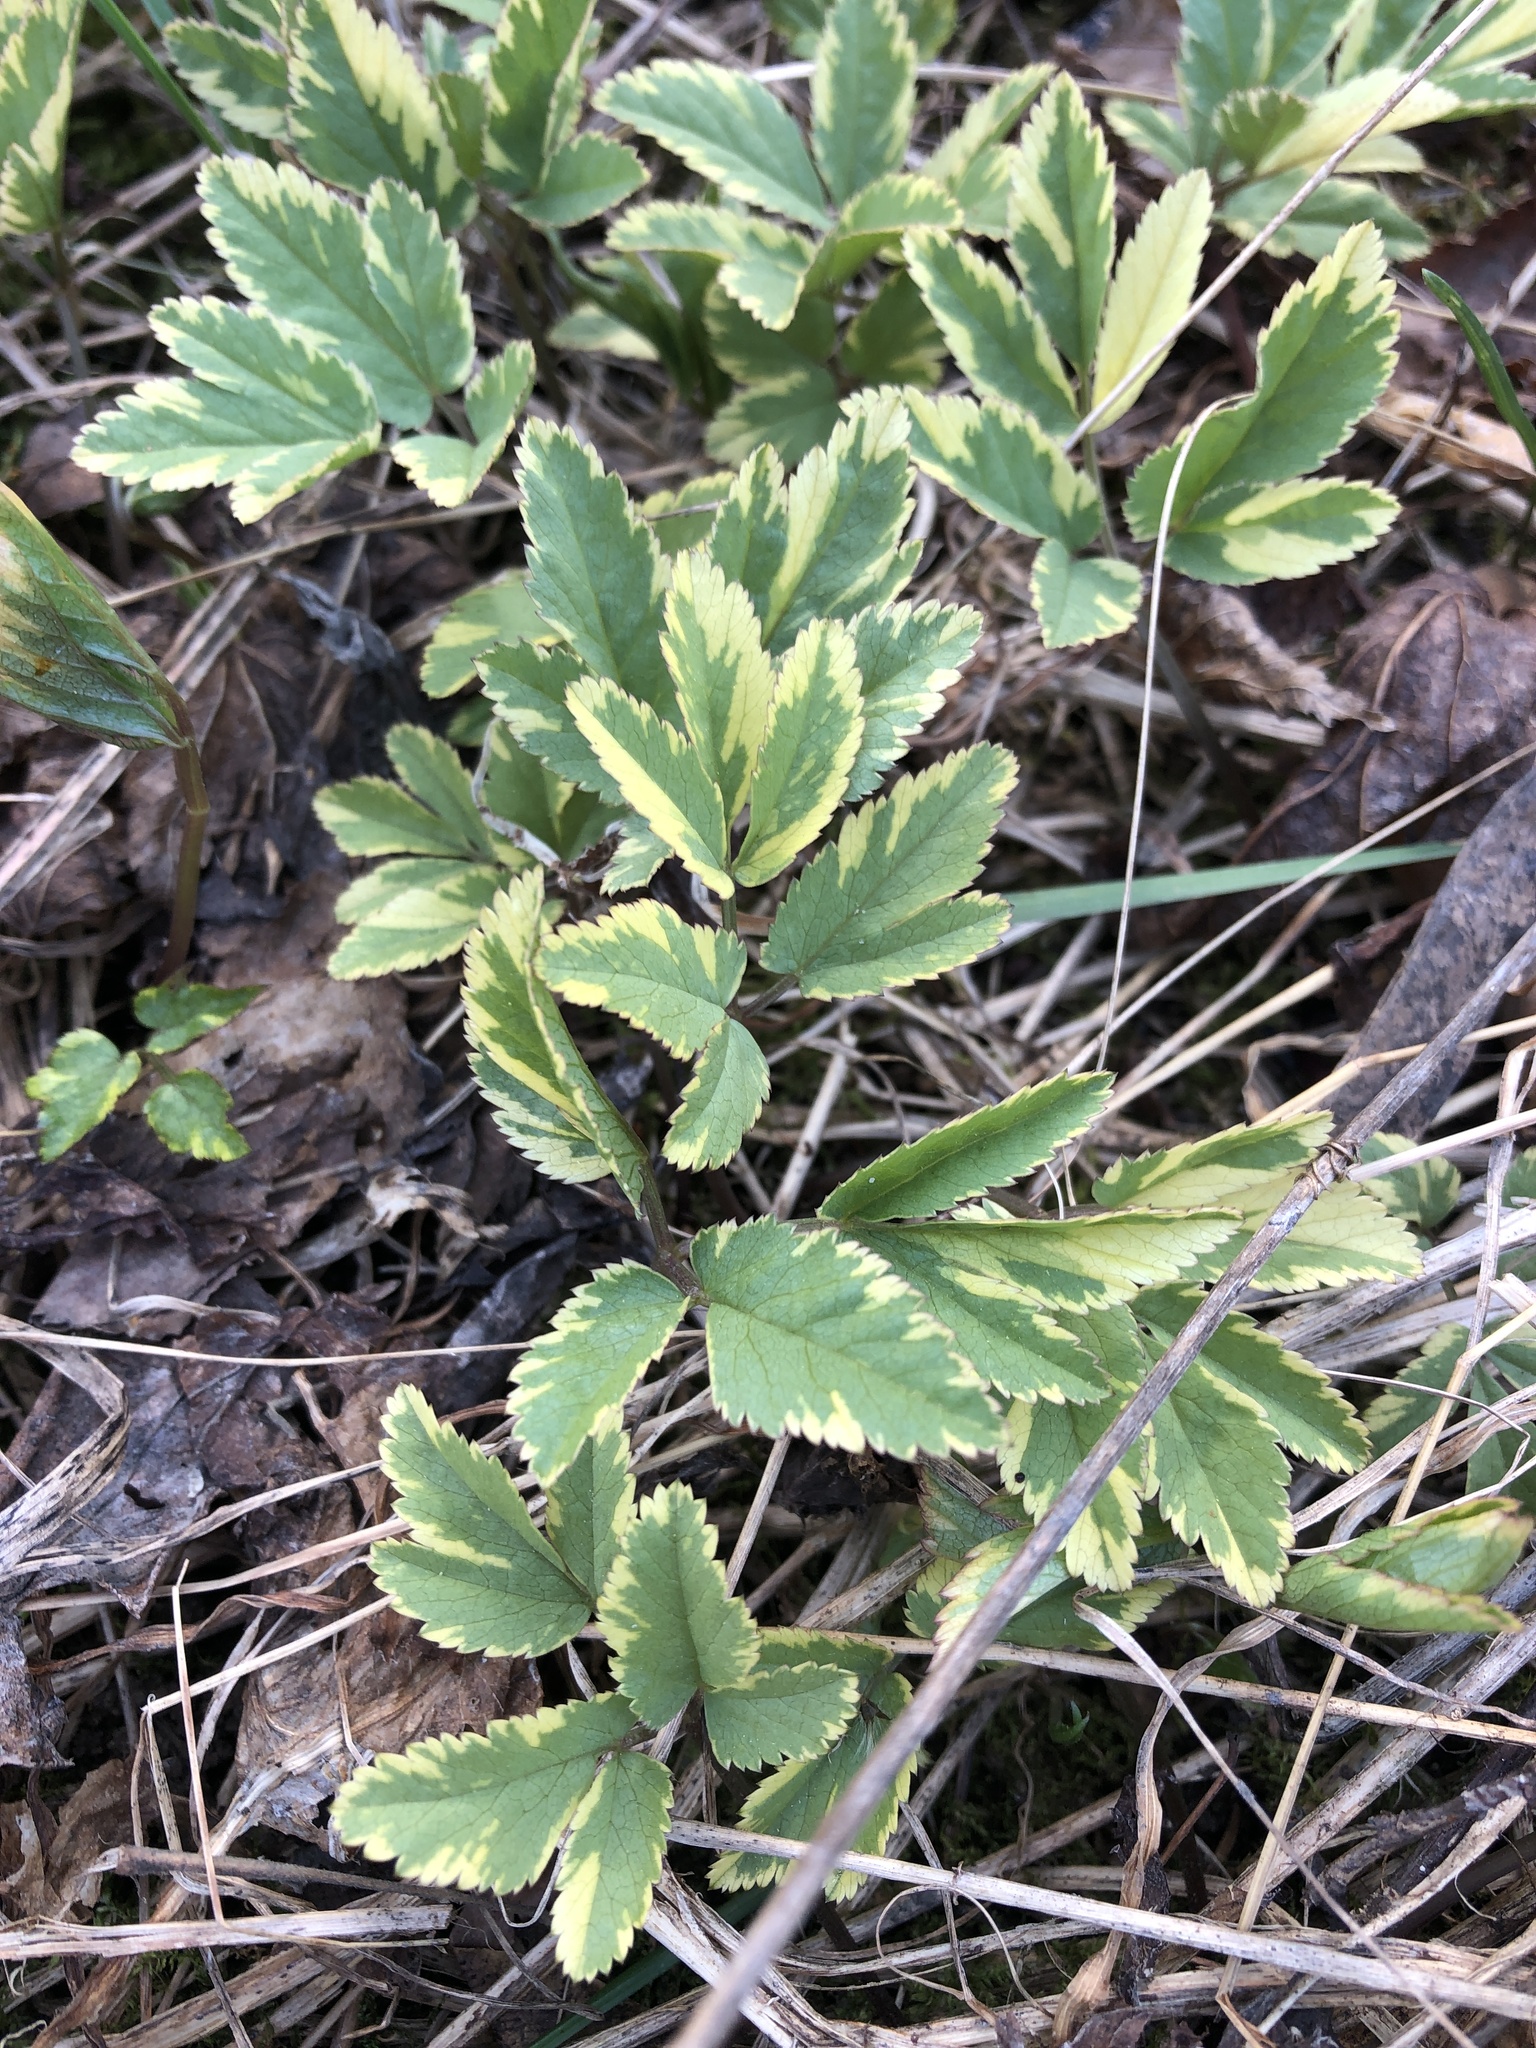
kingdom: Plantae
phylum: Tracheophyta
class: Magnoliopsida
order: Apiales
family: Apiaceae
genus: Aegopodium
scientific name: Aegopodium podagraria
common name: Ground-elder
